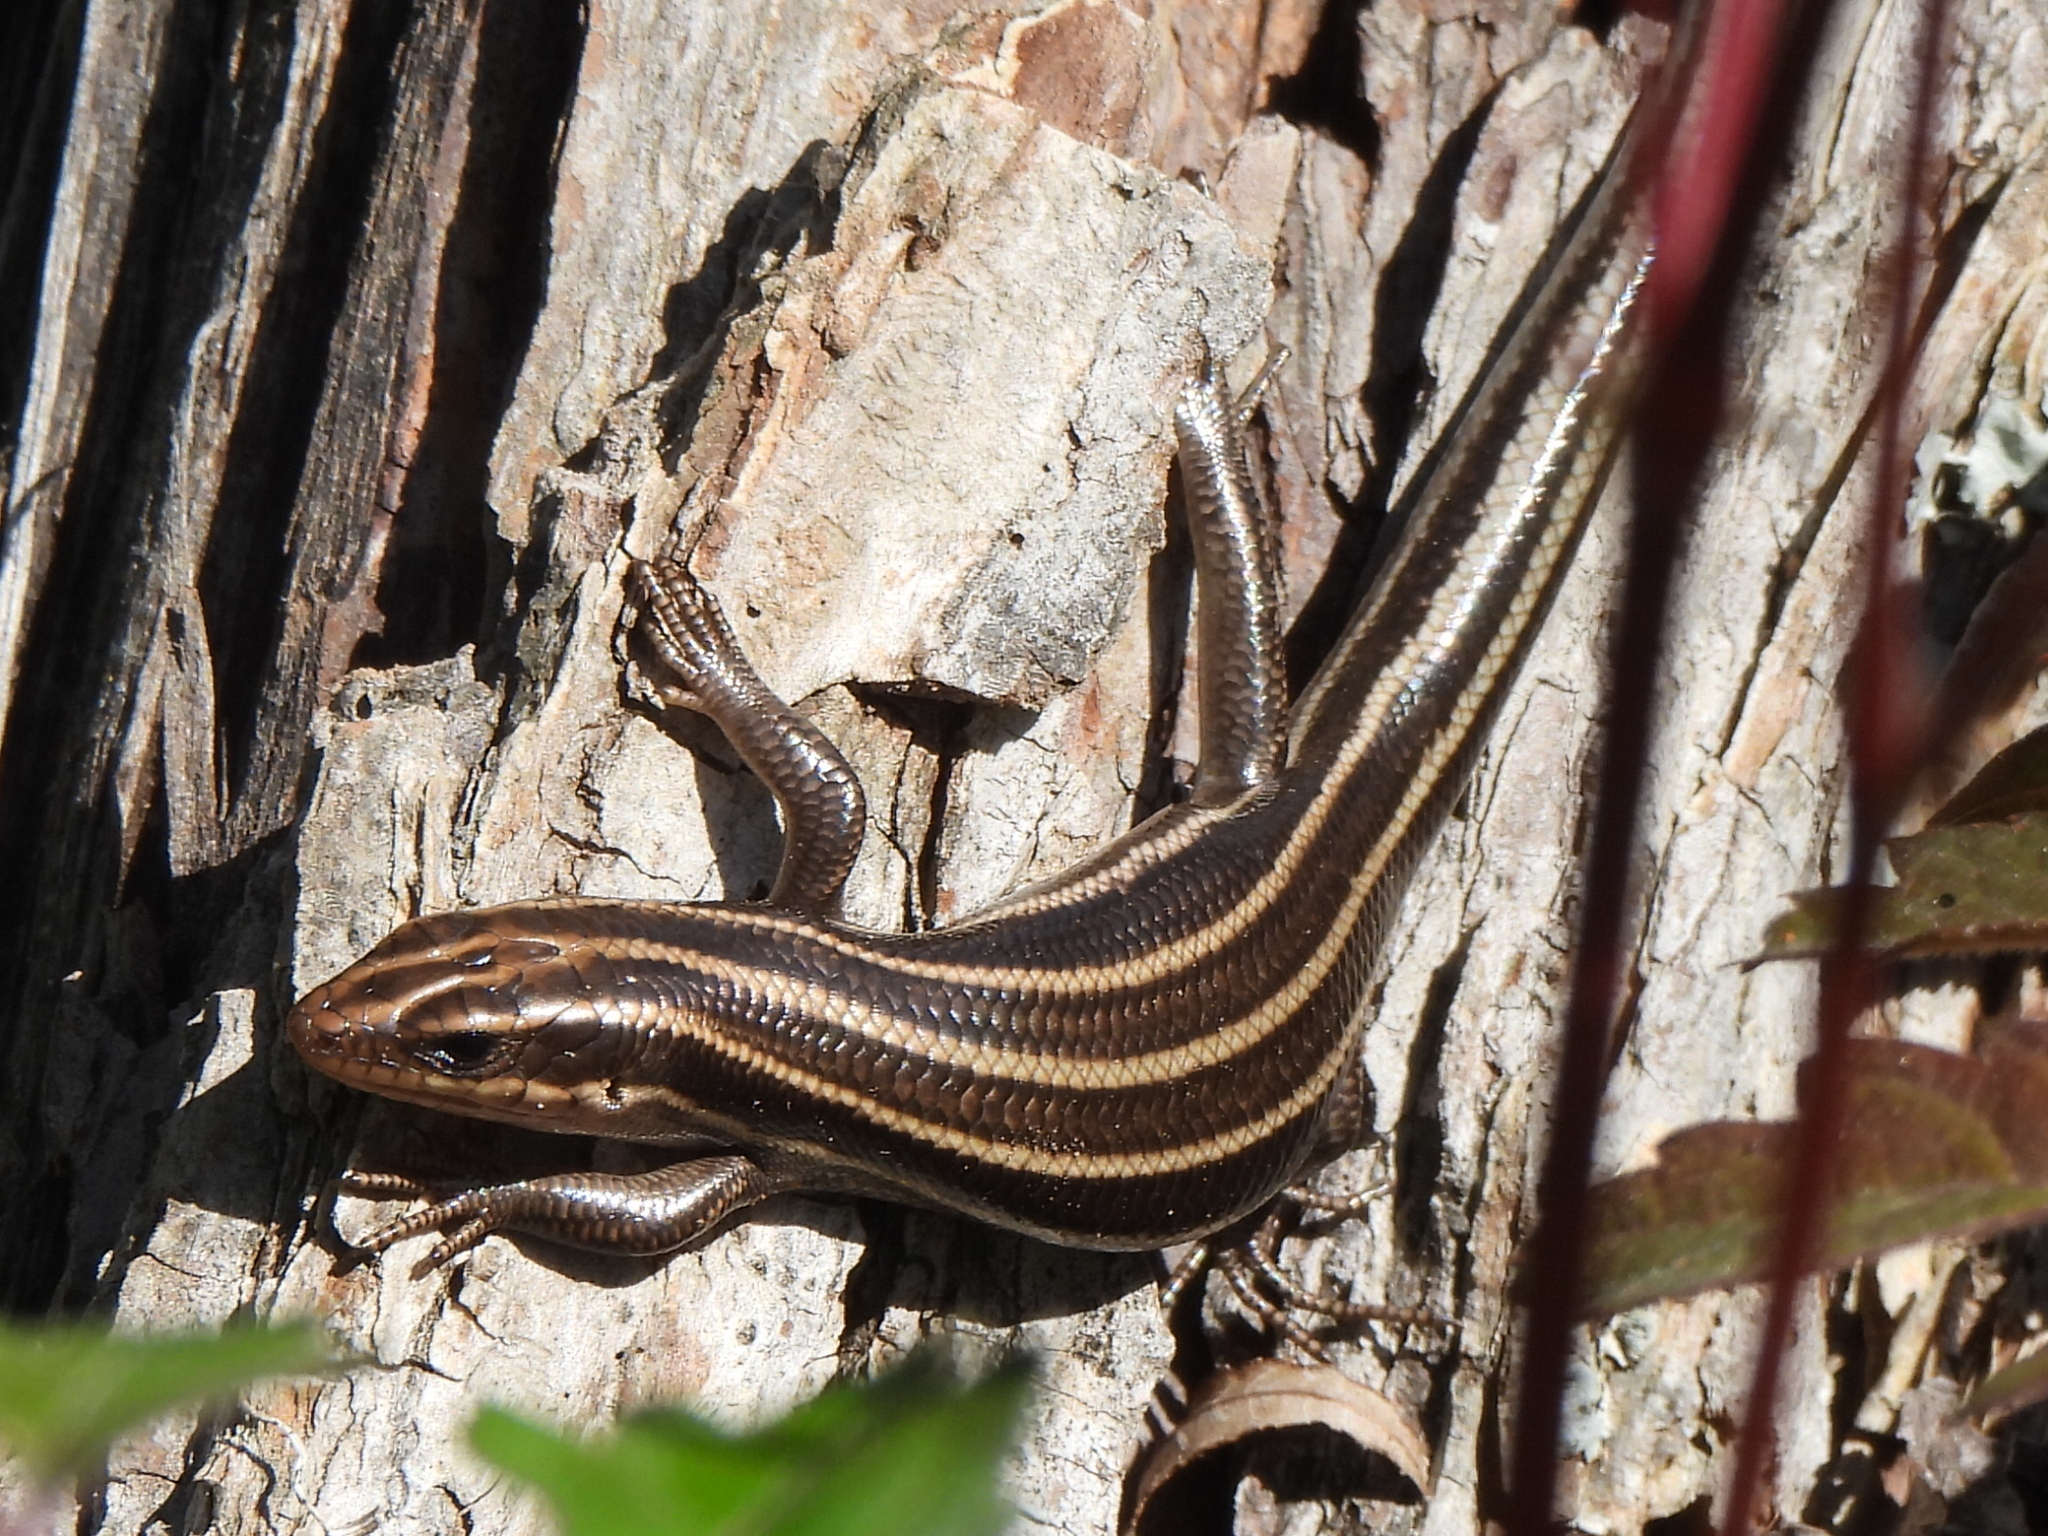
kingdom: Animalia
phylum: Chordata
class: Squamata
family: Scincidae
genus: Plestiodon
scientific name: Plestiodon fasciatus
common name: Five-lined skink
